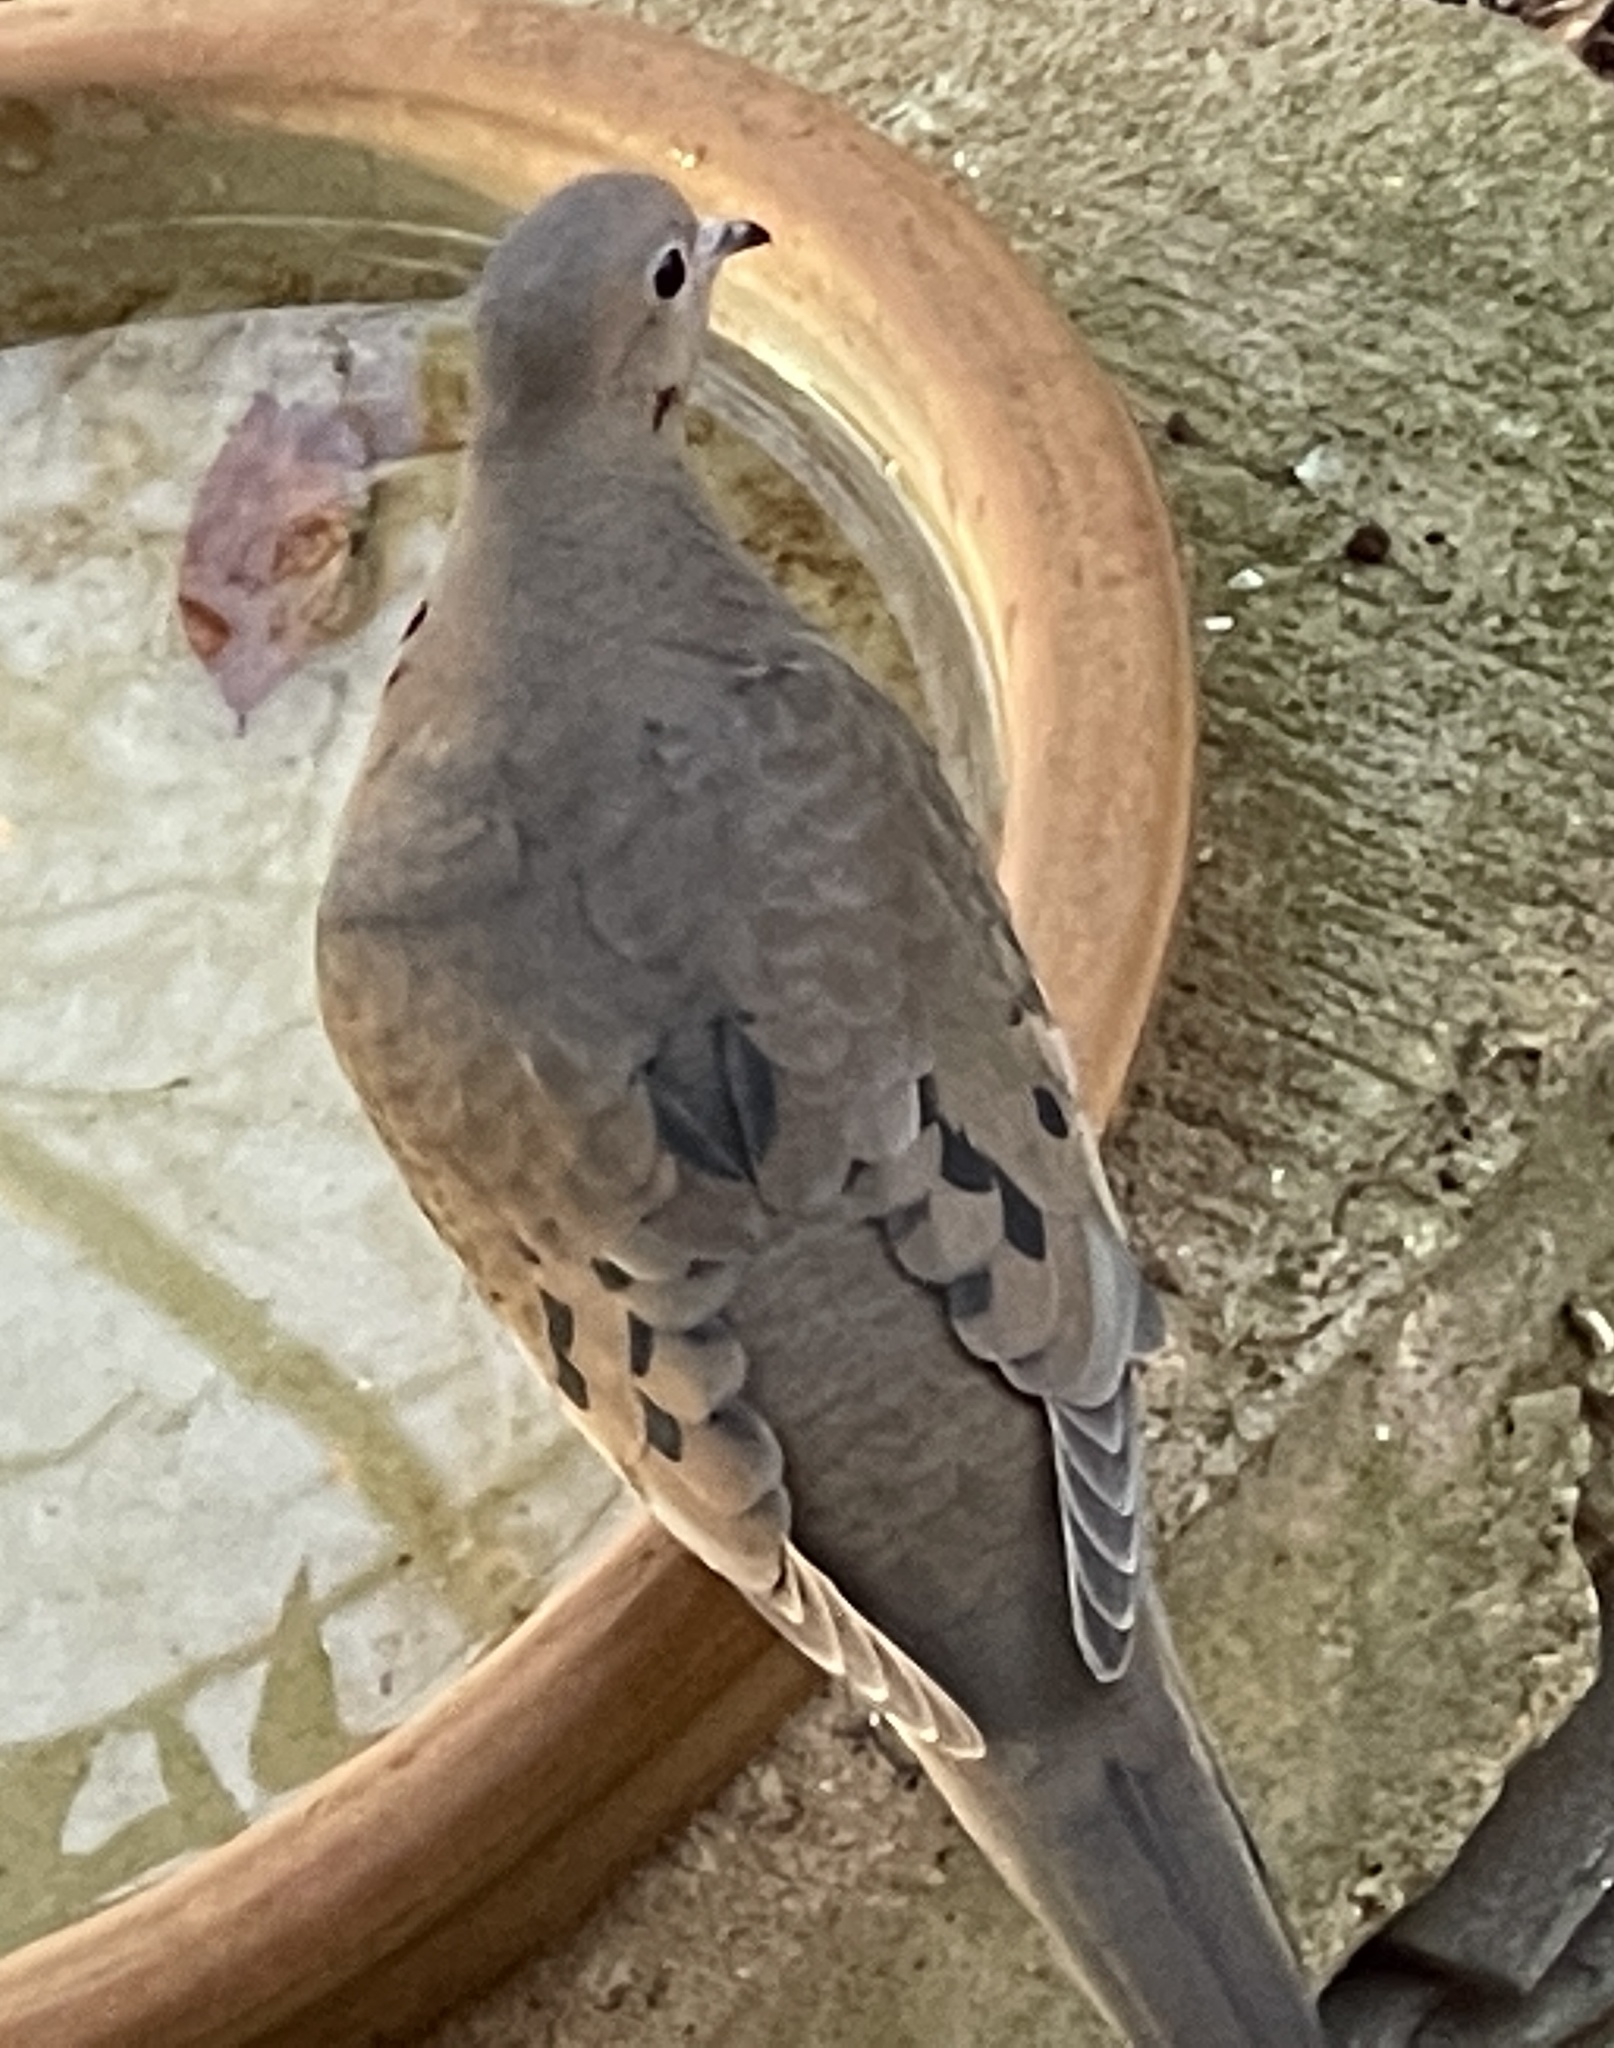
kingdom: Animalia
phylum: Chordata
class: Aves
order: Columbiformes
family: Columbidae
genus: Zenaida
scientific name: Zenaida macroura
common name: Mourning dove
